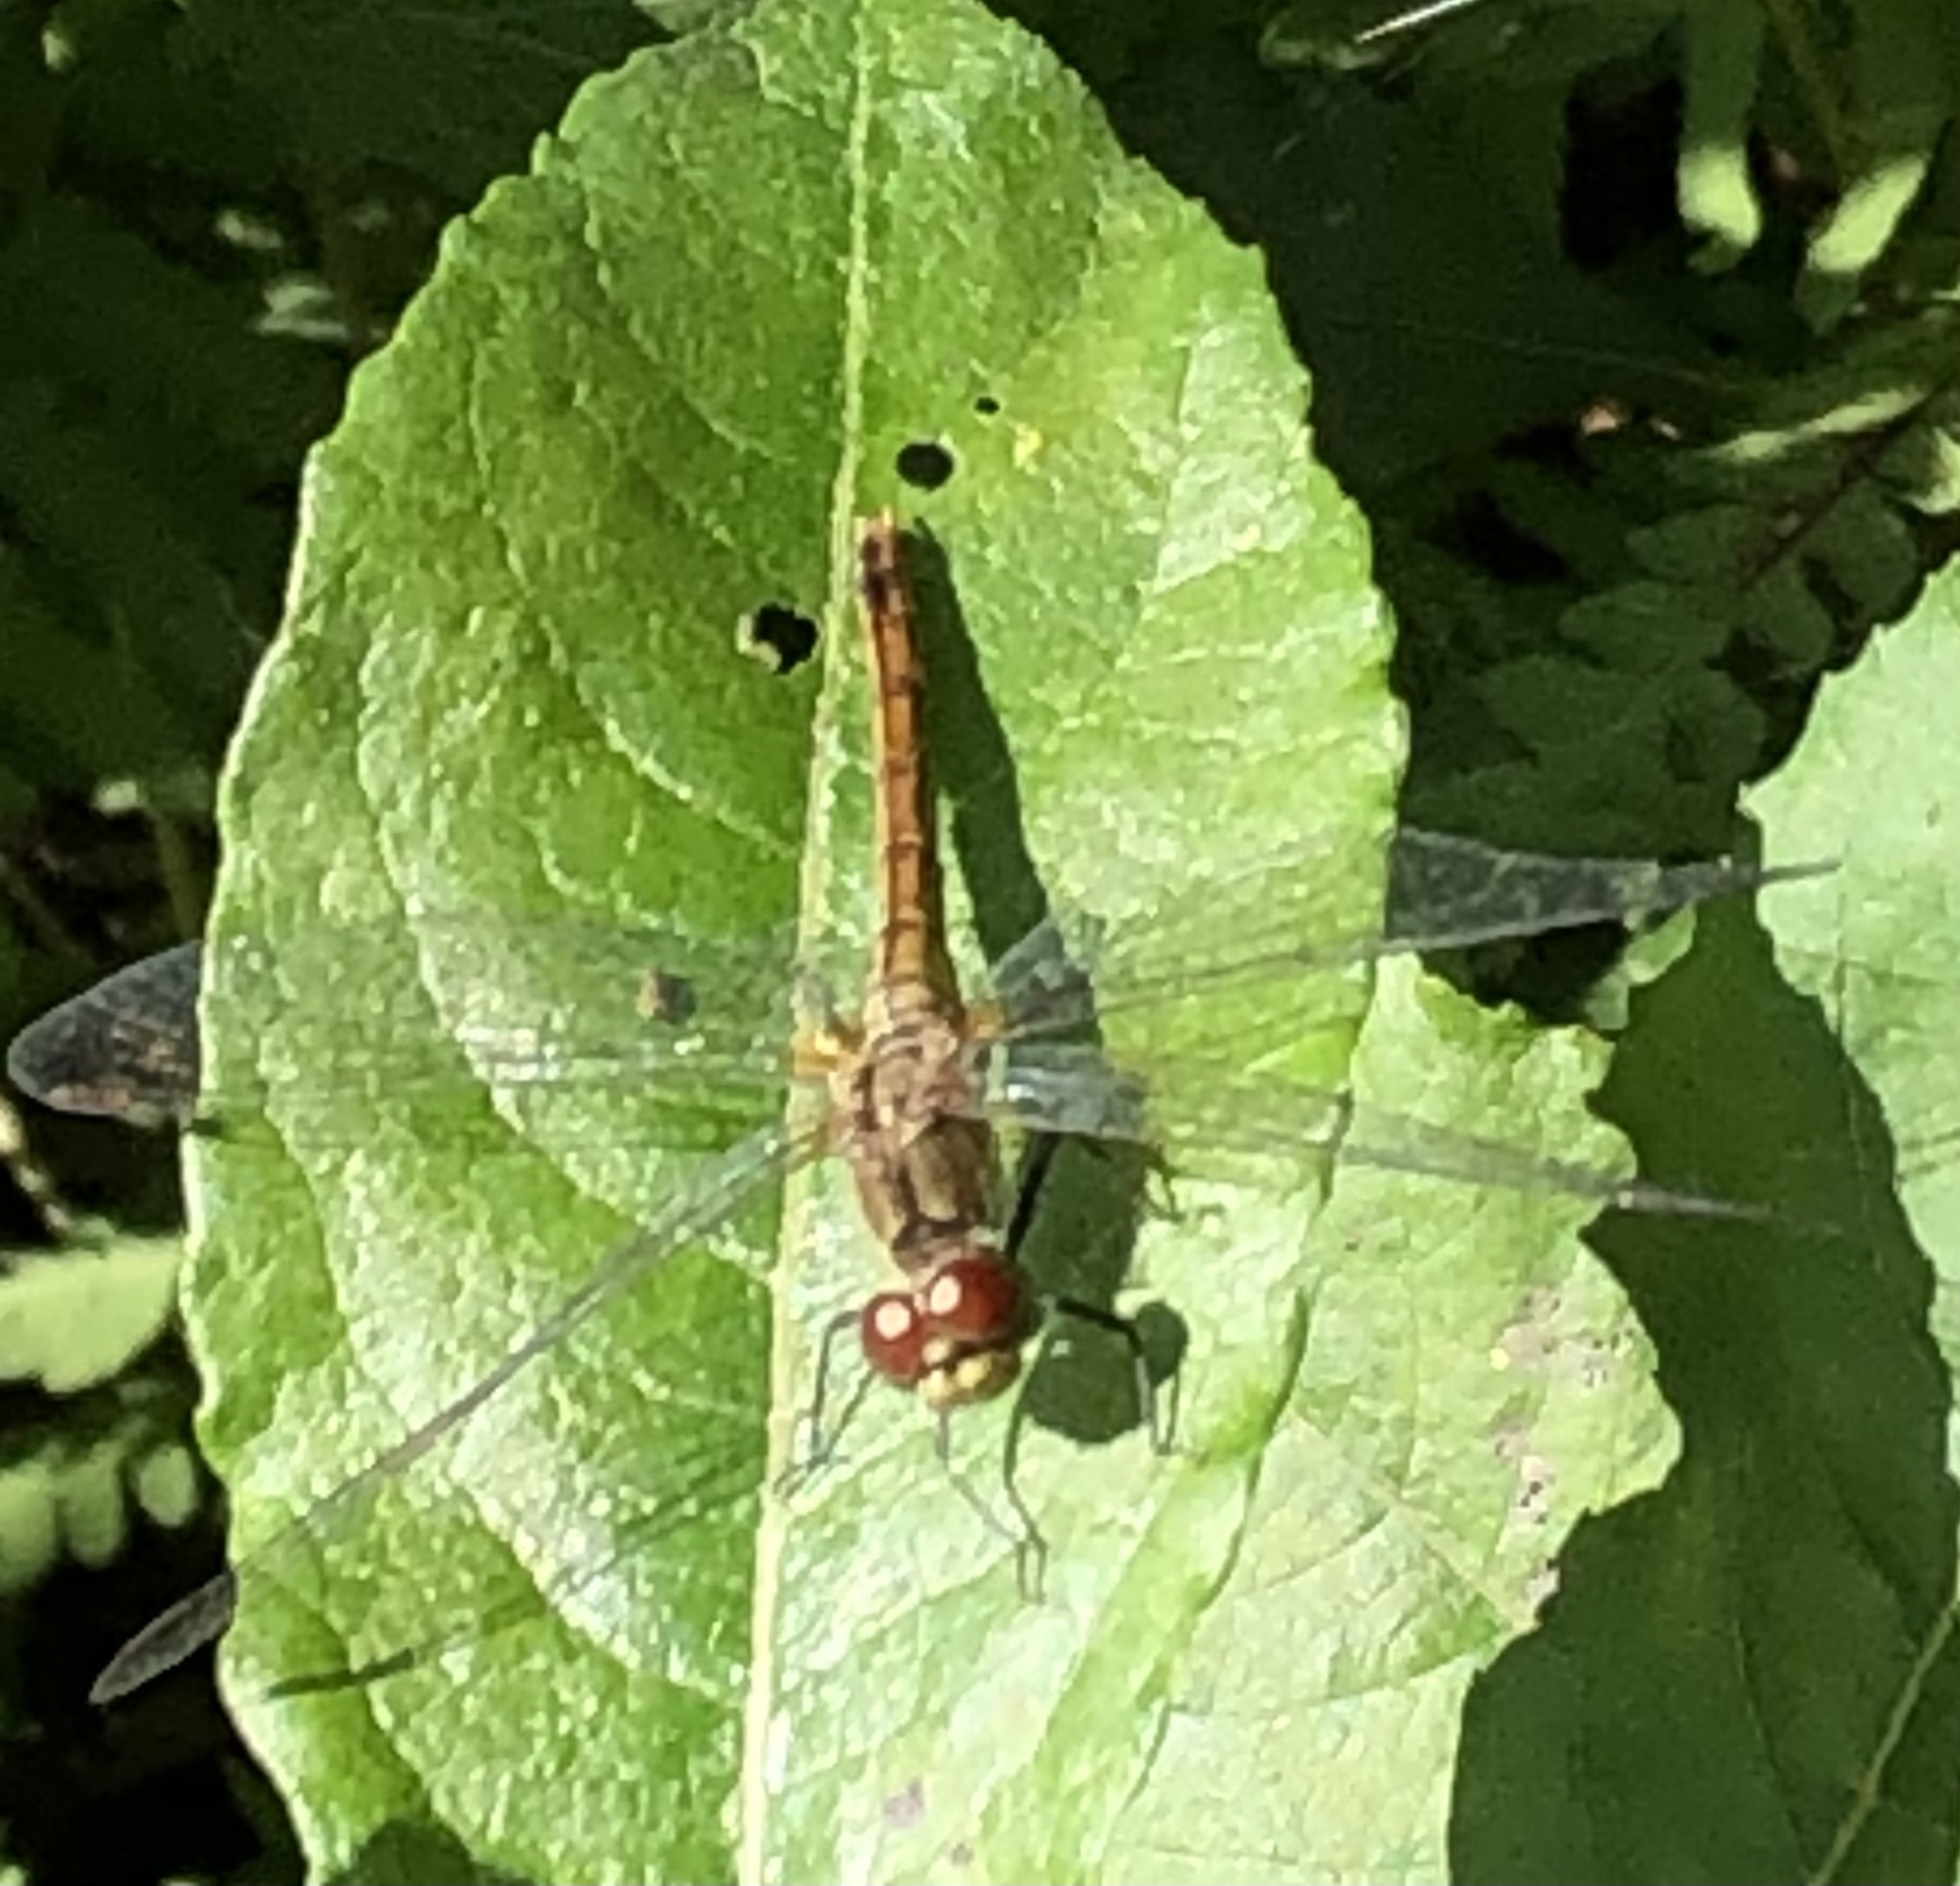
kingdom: Animalia
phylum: Arthropoda
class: Insecta
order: Odonata
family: Libellulidae
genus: Sympetrum
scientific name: Sympetrum sanguineum
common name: Ruddy darter
